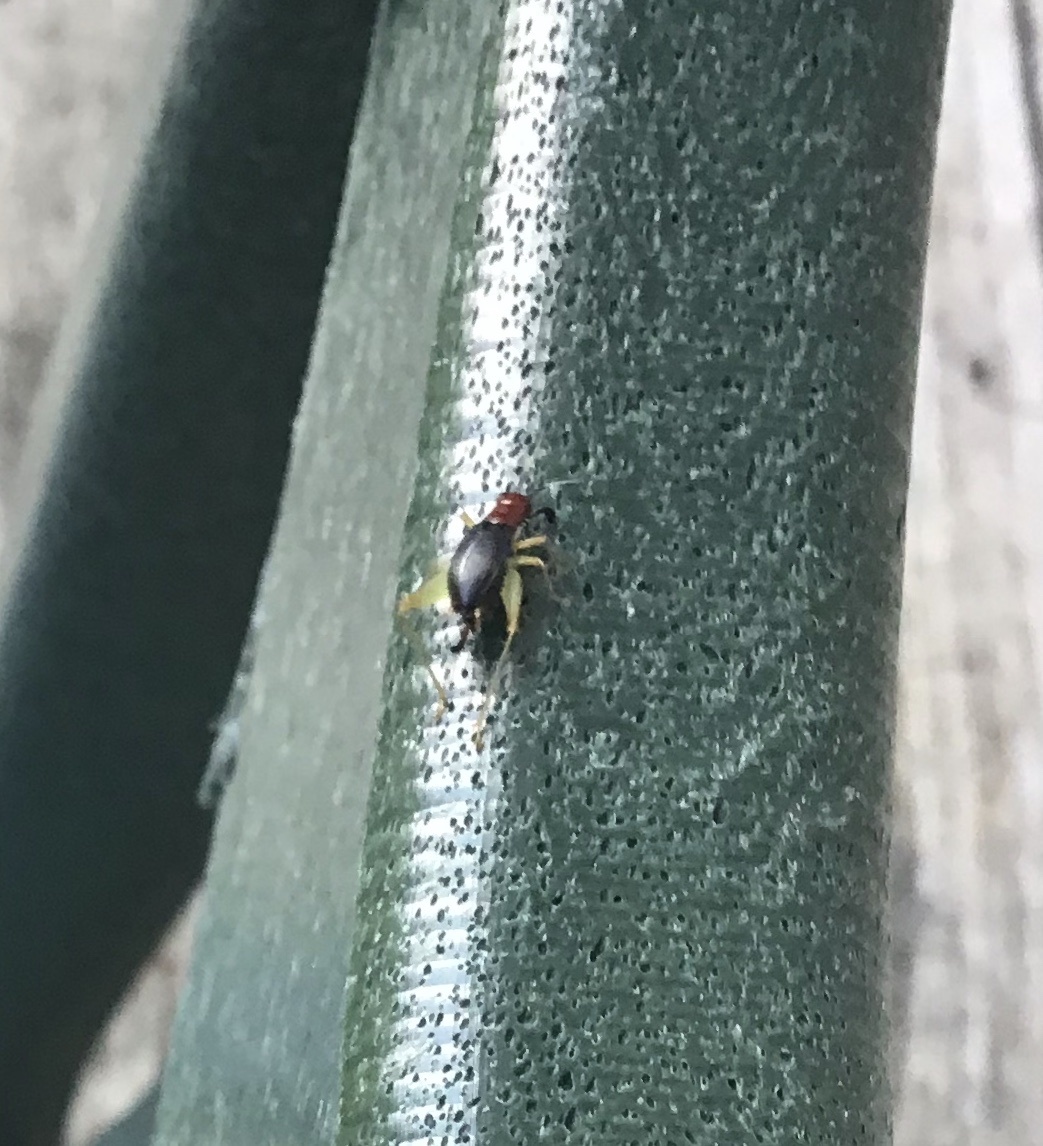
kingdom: Animalia
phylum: Arthropoda
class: Insecta
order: Orthoptera
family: Trigonidiidae
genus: Phyllopalpus
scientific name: Phyllopalpus pulchellus
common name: Handsome trig
